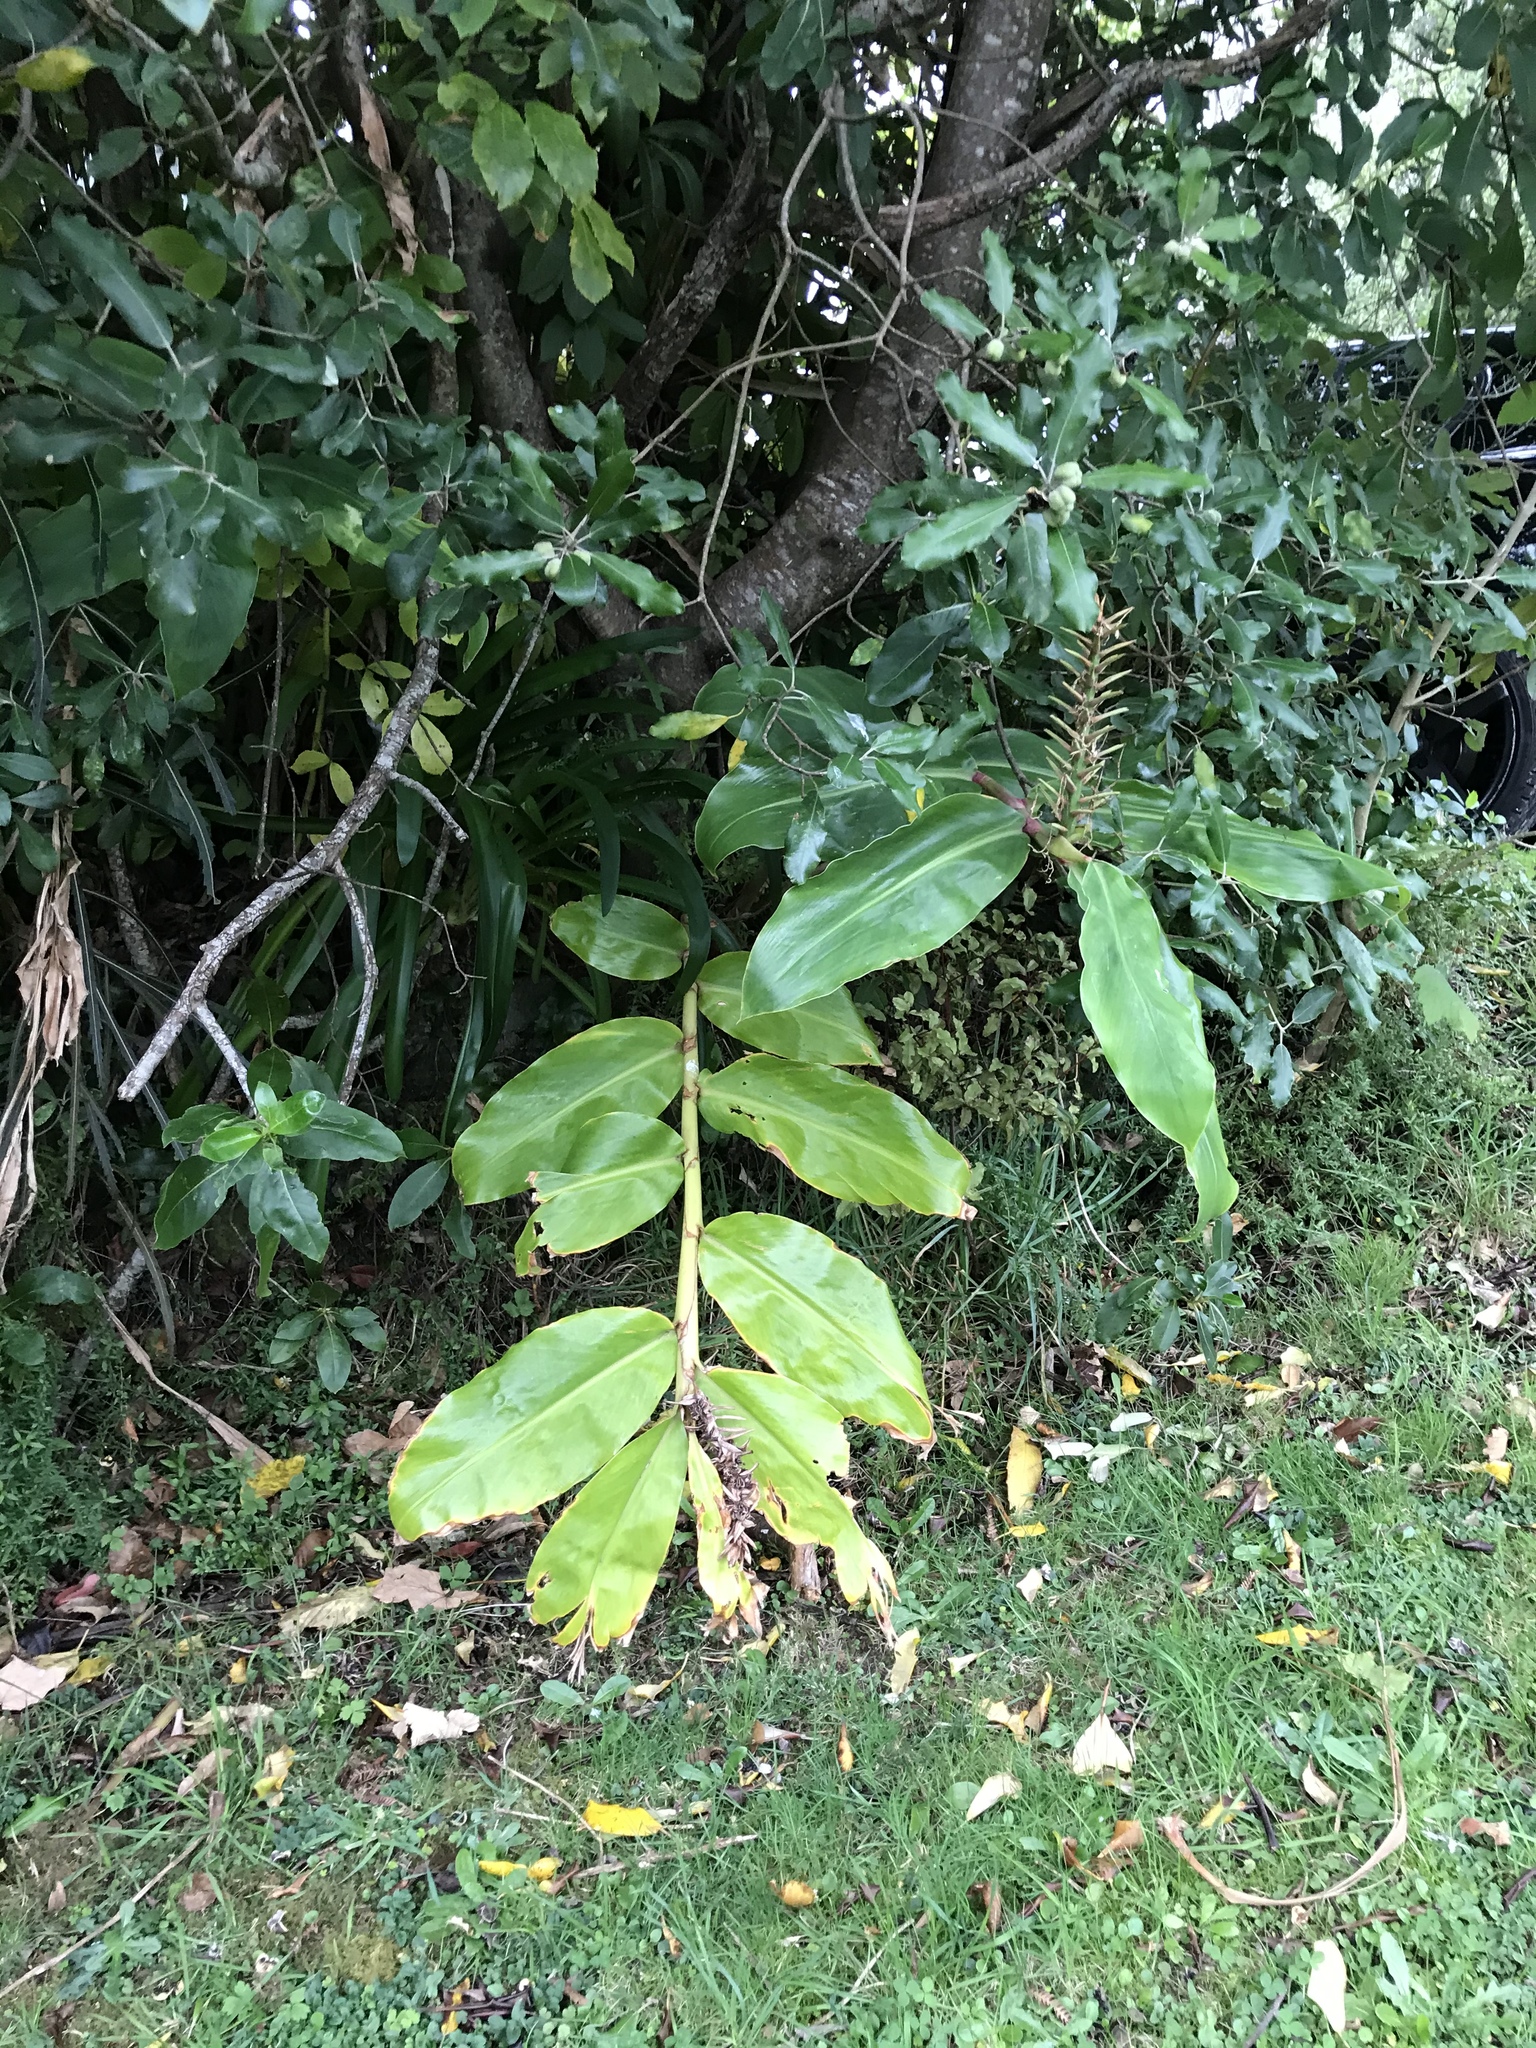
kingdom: Plantae
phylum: Tracheophyta
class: Liliopsida
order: Zingiberales
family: Zingiberaceae
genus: Hedychium
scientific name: Hedychium gardnerianum
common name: Himalayan ginger
